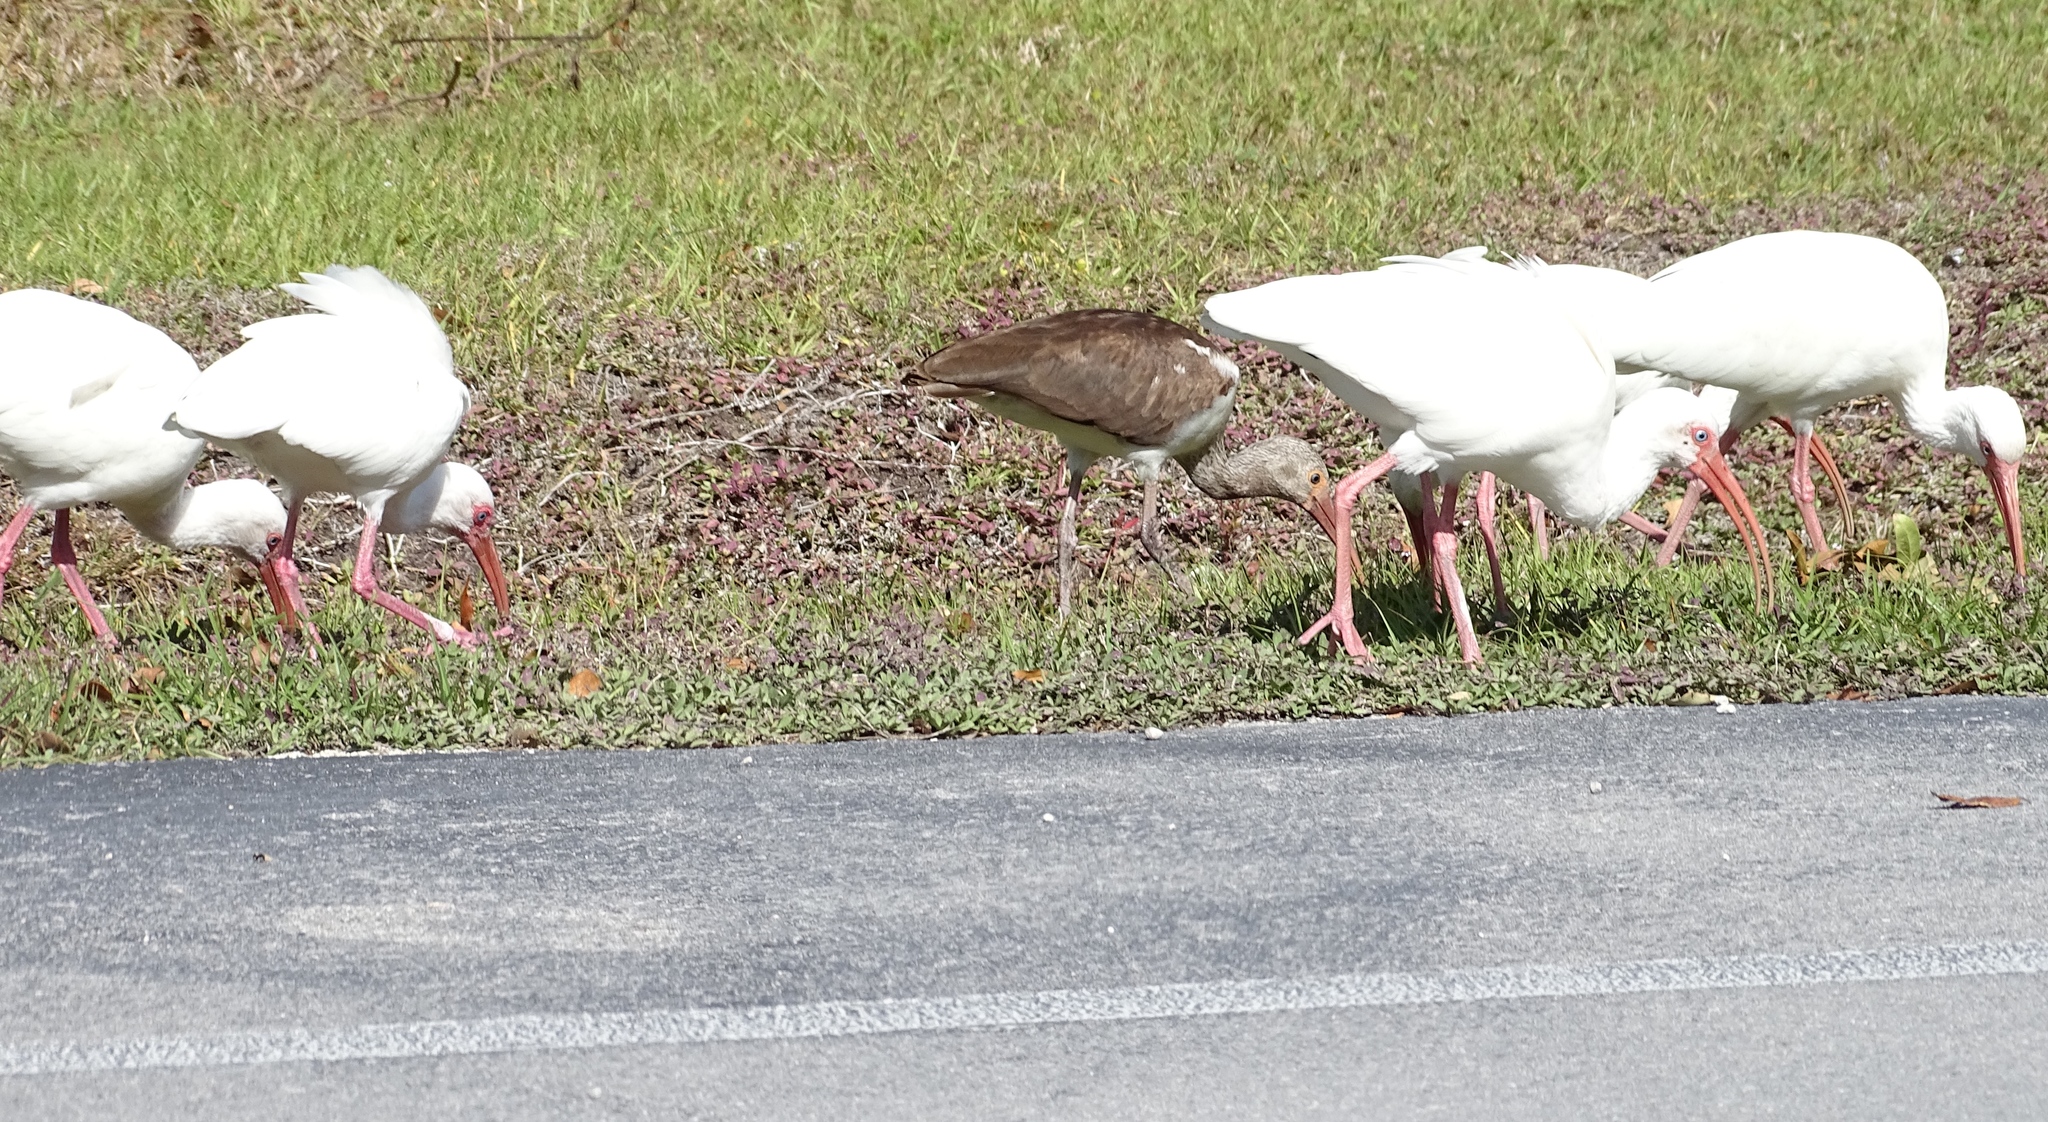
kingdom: Animalia
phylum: Chordata
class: Aves
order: Pelecaniformes
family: Threskiornithidae
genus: Eudocimus
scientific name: Eudocimus albus
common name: White ibis
